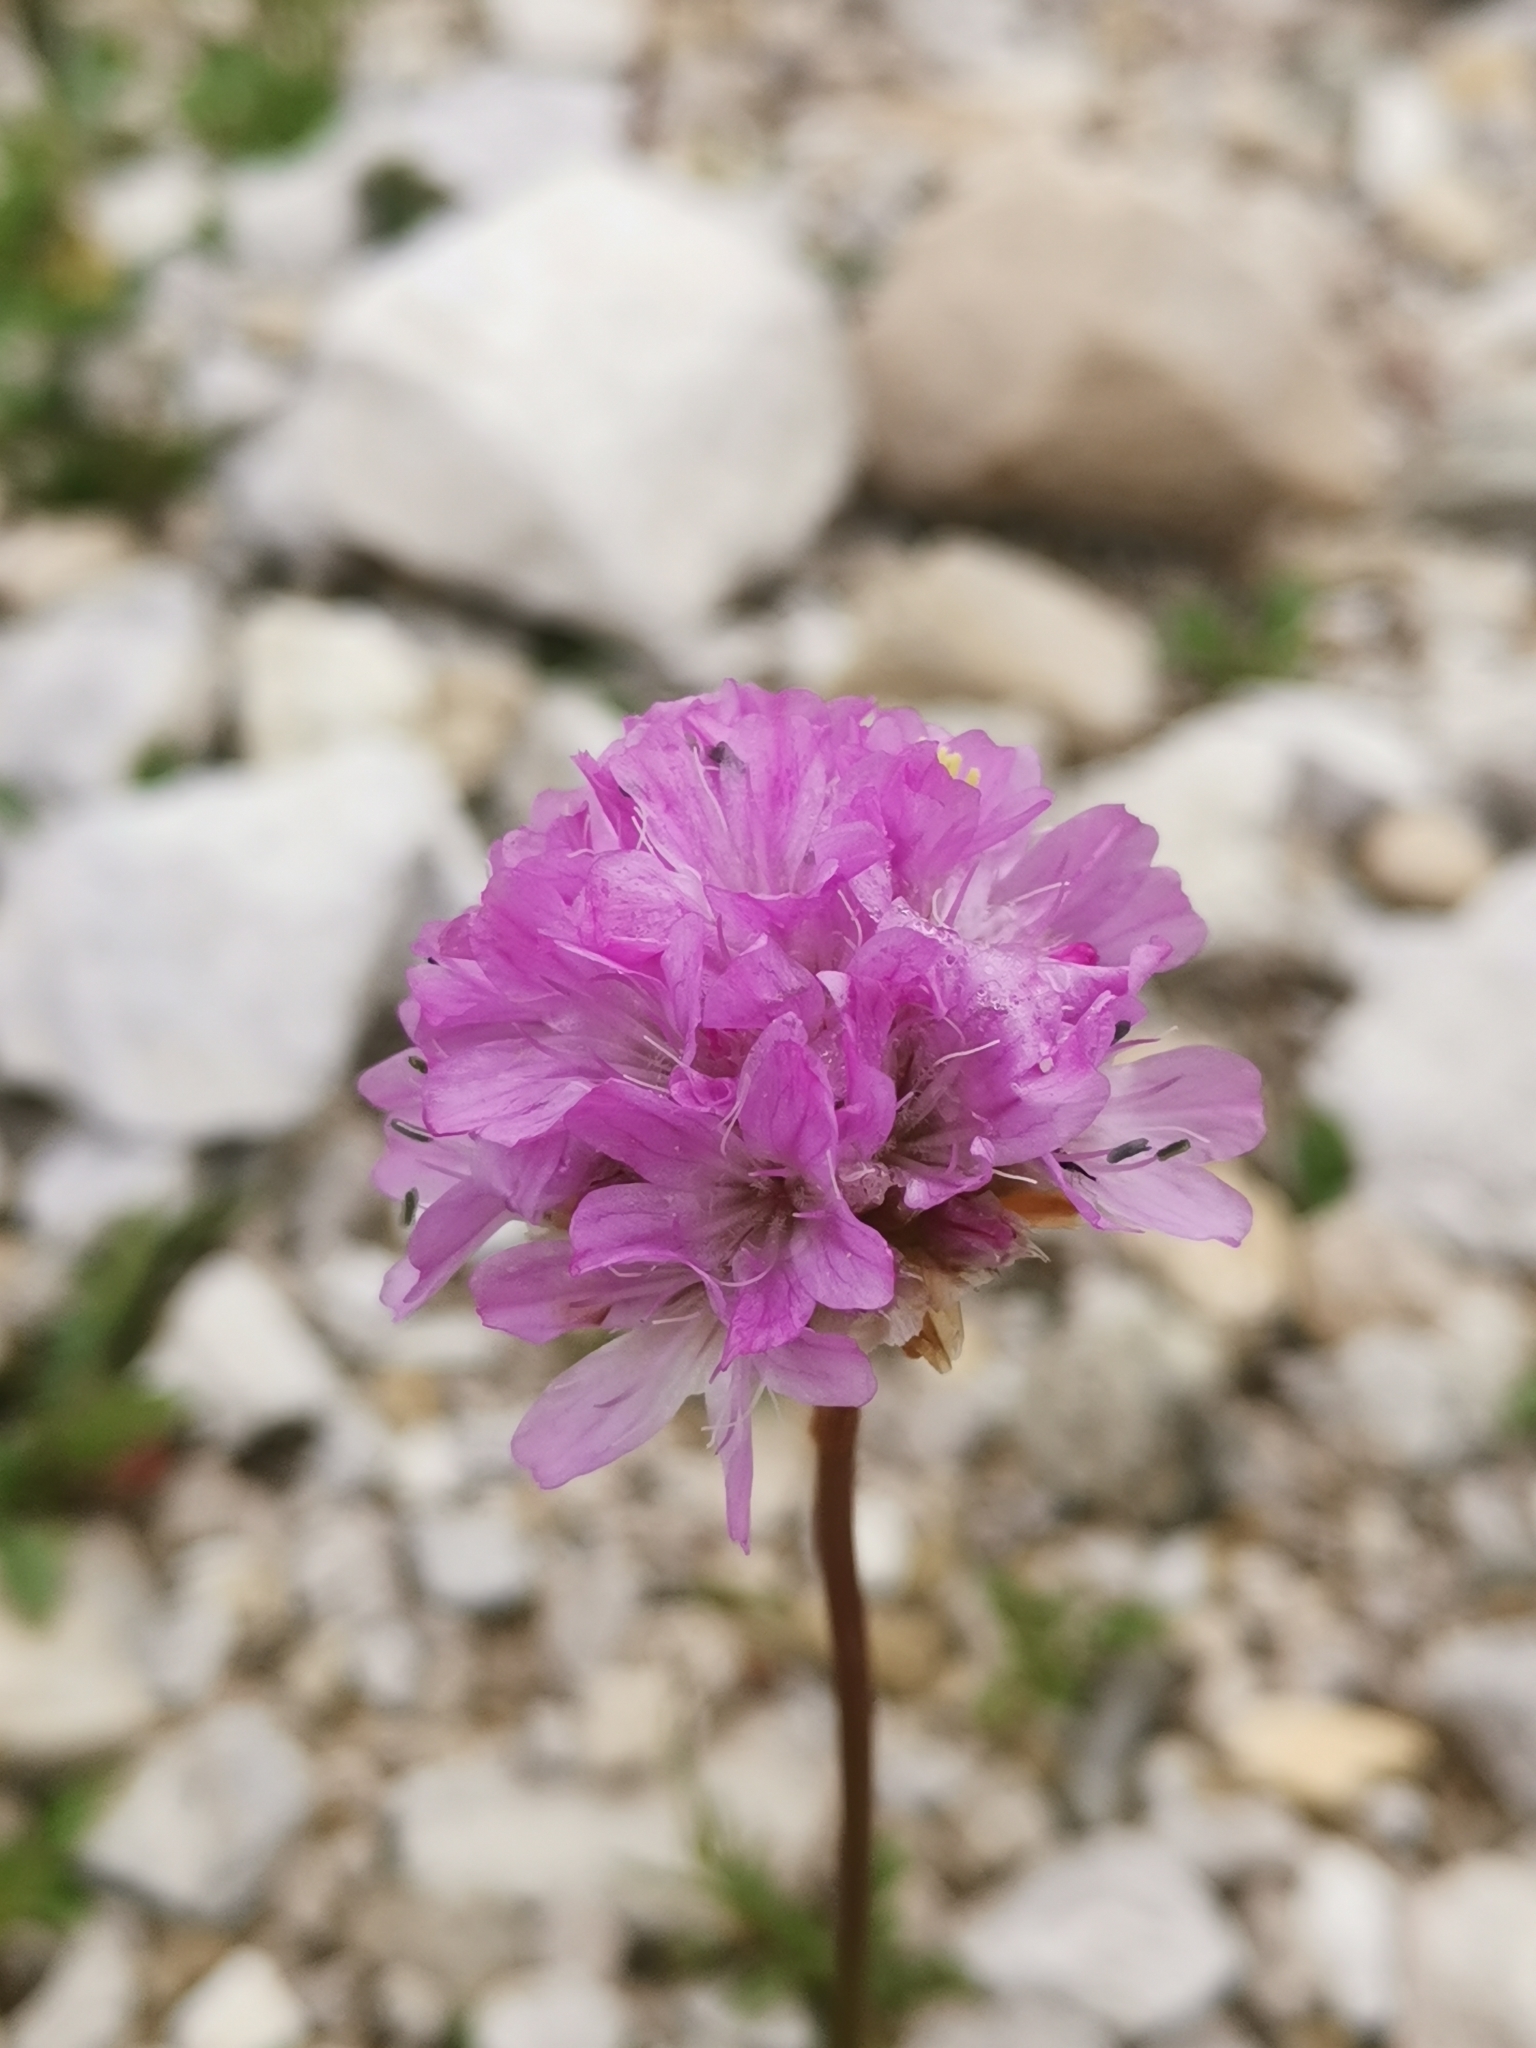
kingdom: Plantae
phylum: Tracheophyta
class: Magnoliopsida
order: Caryophyllales
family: Plumbaginaceae
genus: Armeria
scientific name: Armeria alpina
